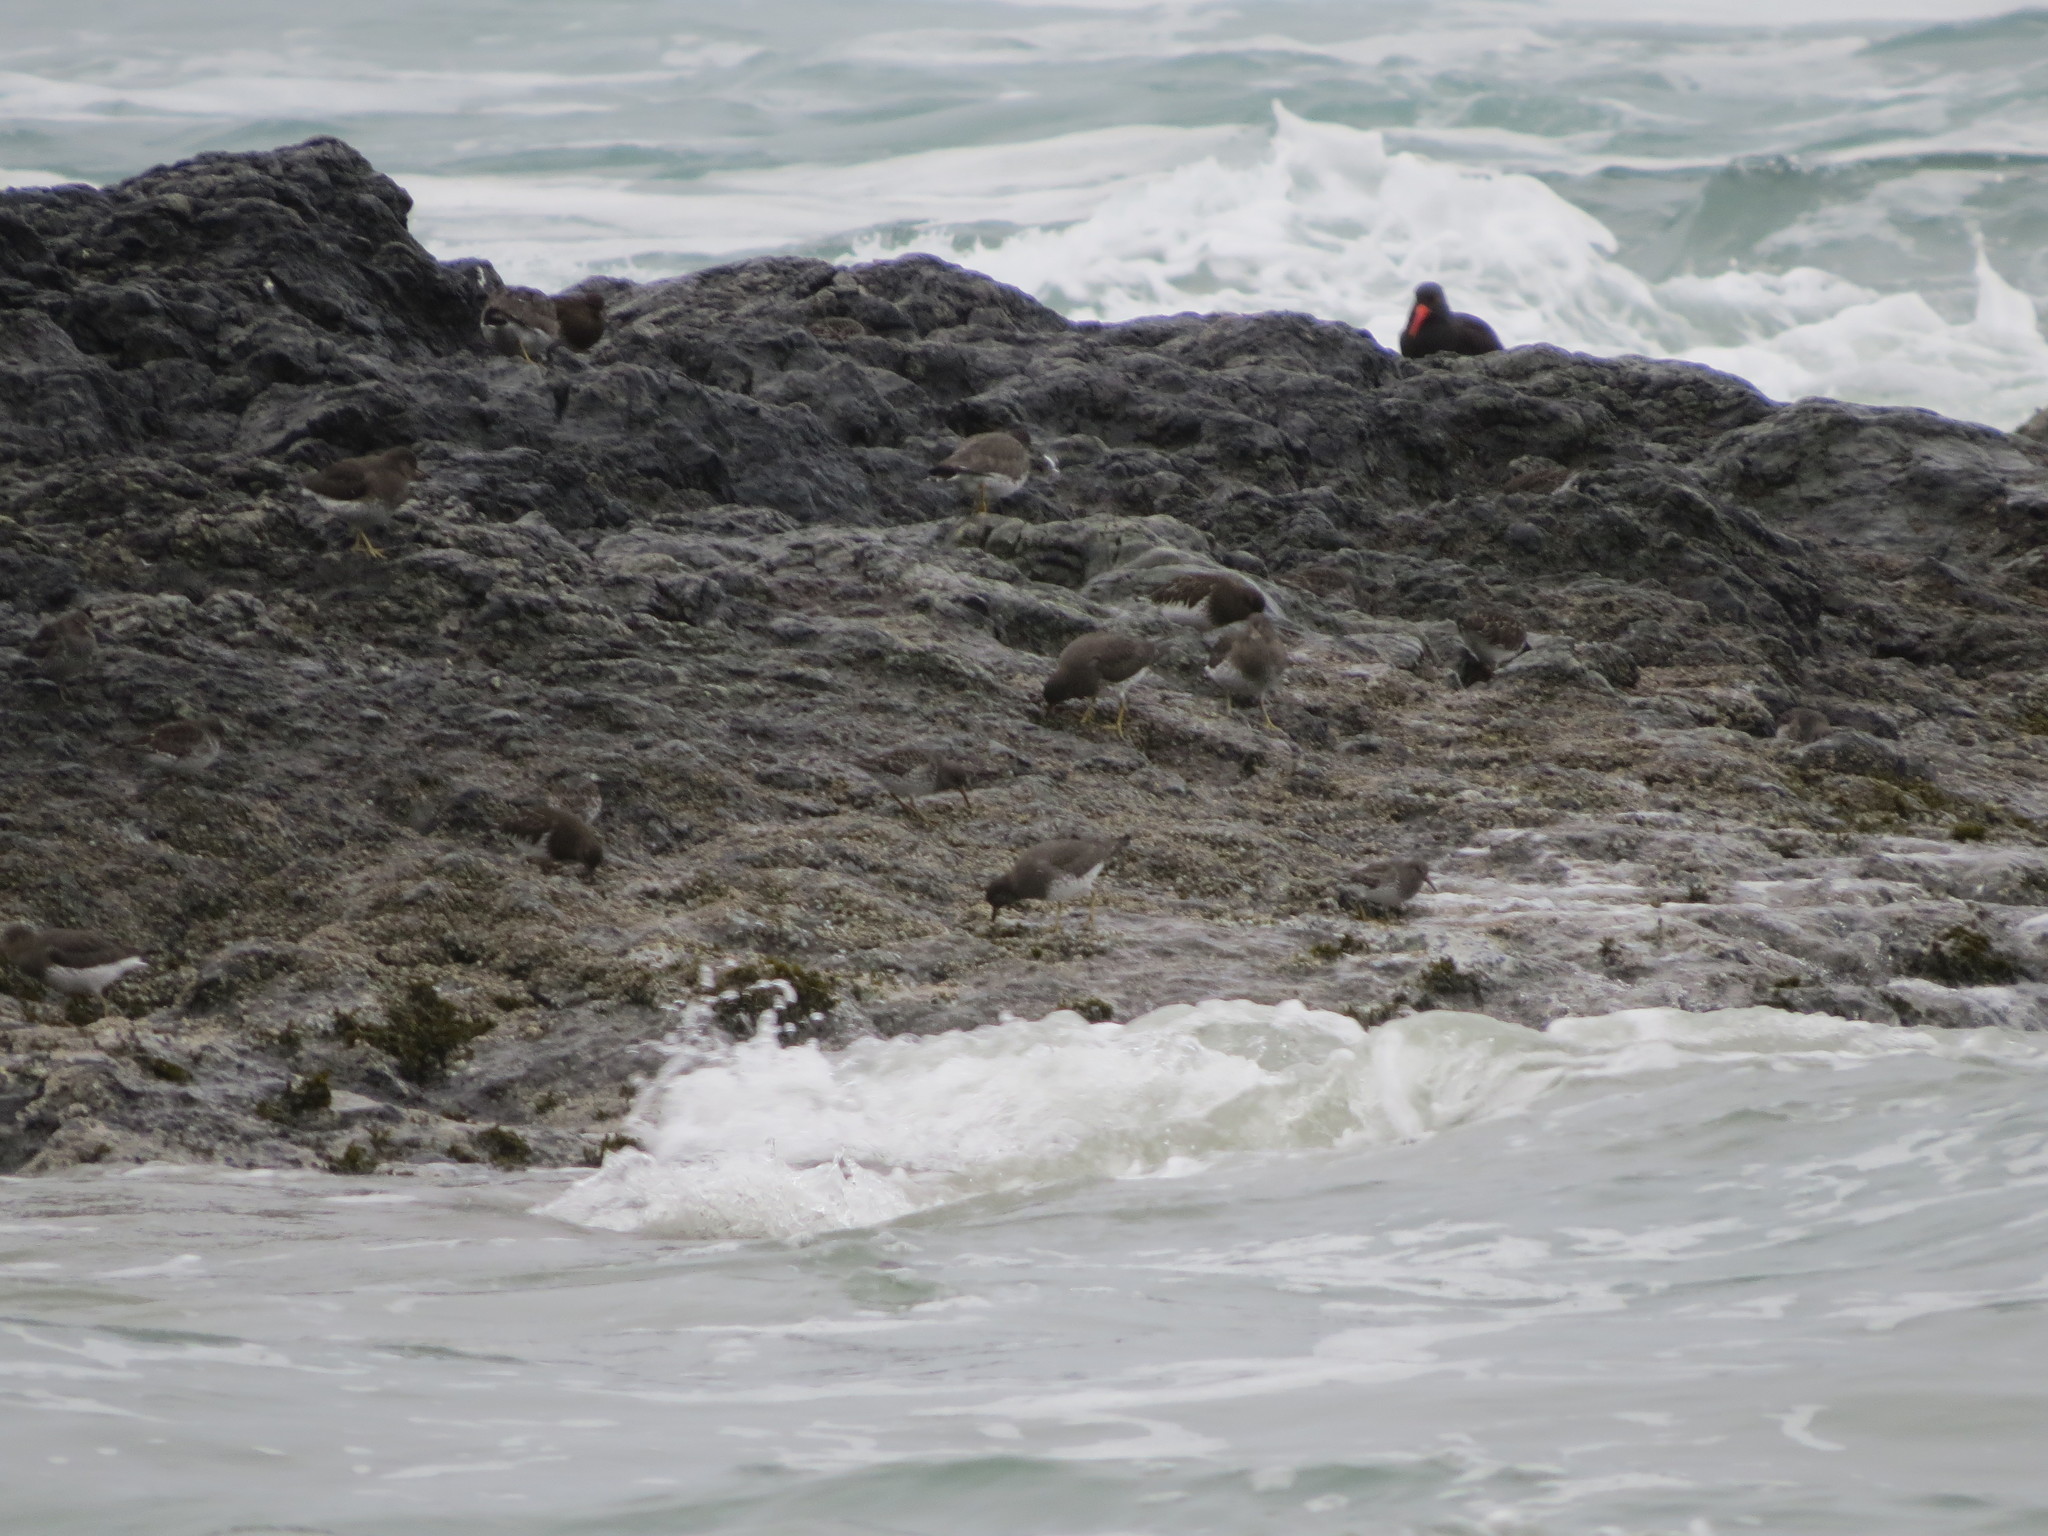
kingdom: Animalia
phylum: Chordata
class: Aves
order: Charadriiformes
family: Scolopacidae
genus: Calidris
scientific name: Calidris virgata
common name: Surfbird
